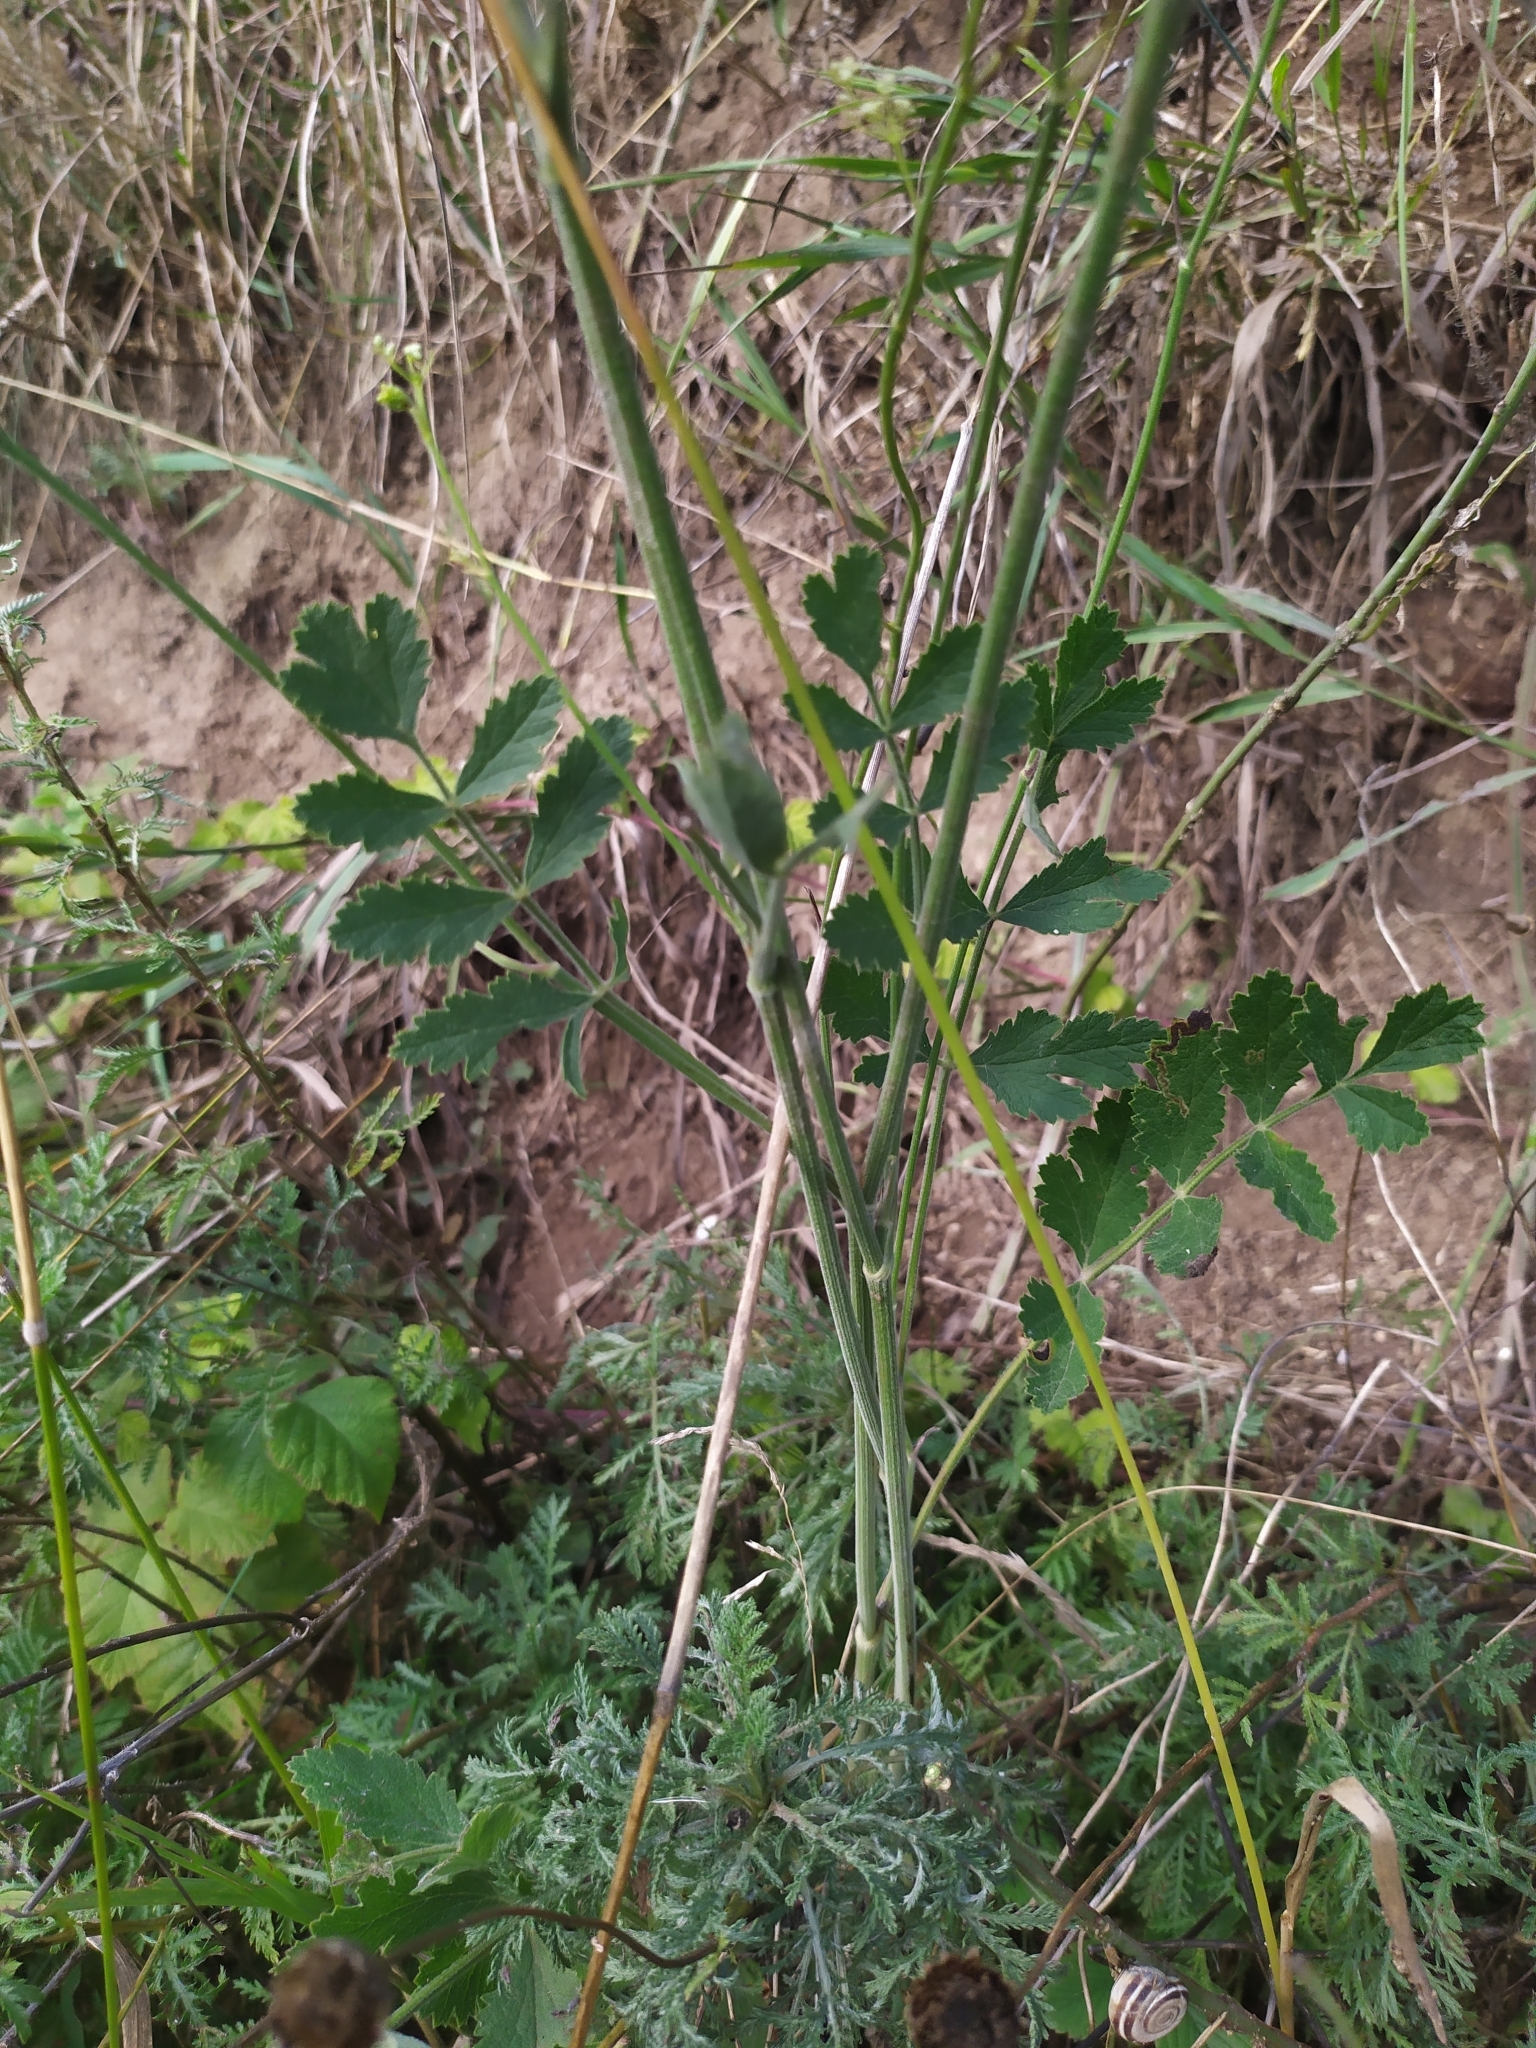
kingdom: Plantae
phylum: Tracheophyta
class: Magnoliopsida
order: Apiales
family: Apiaceae
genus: Pimpinella
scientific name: Pimpinella saxifraga
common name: Burnet-saxifrage
